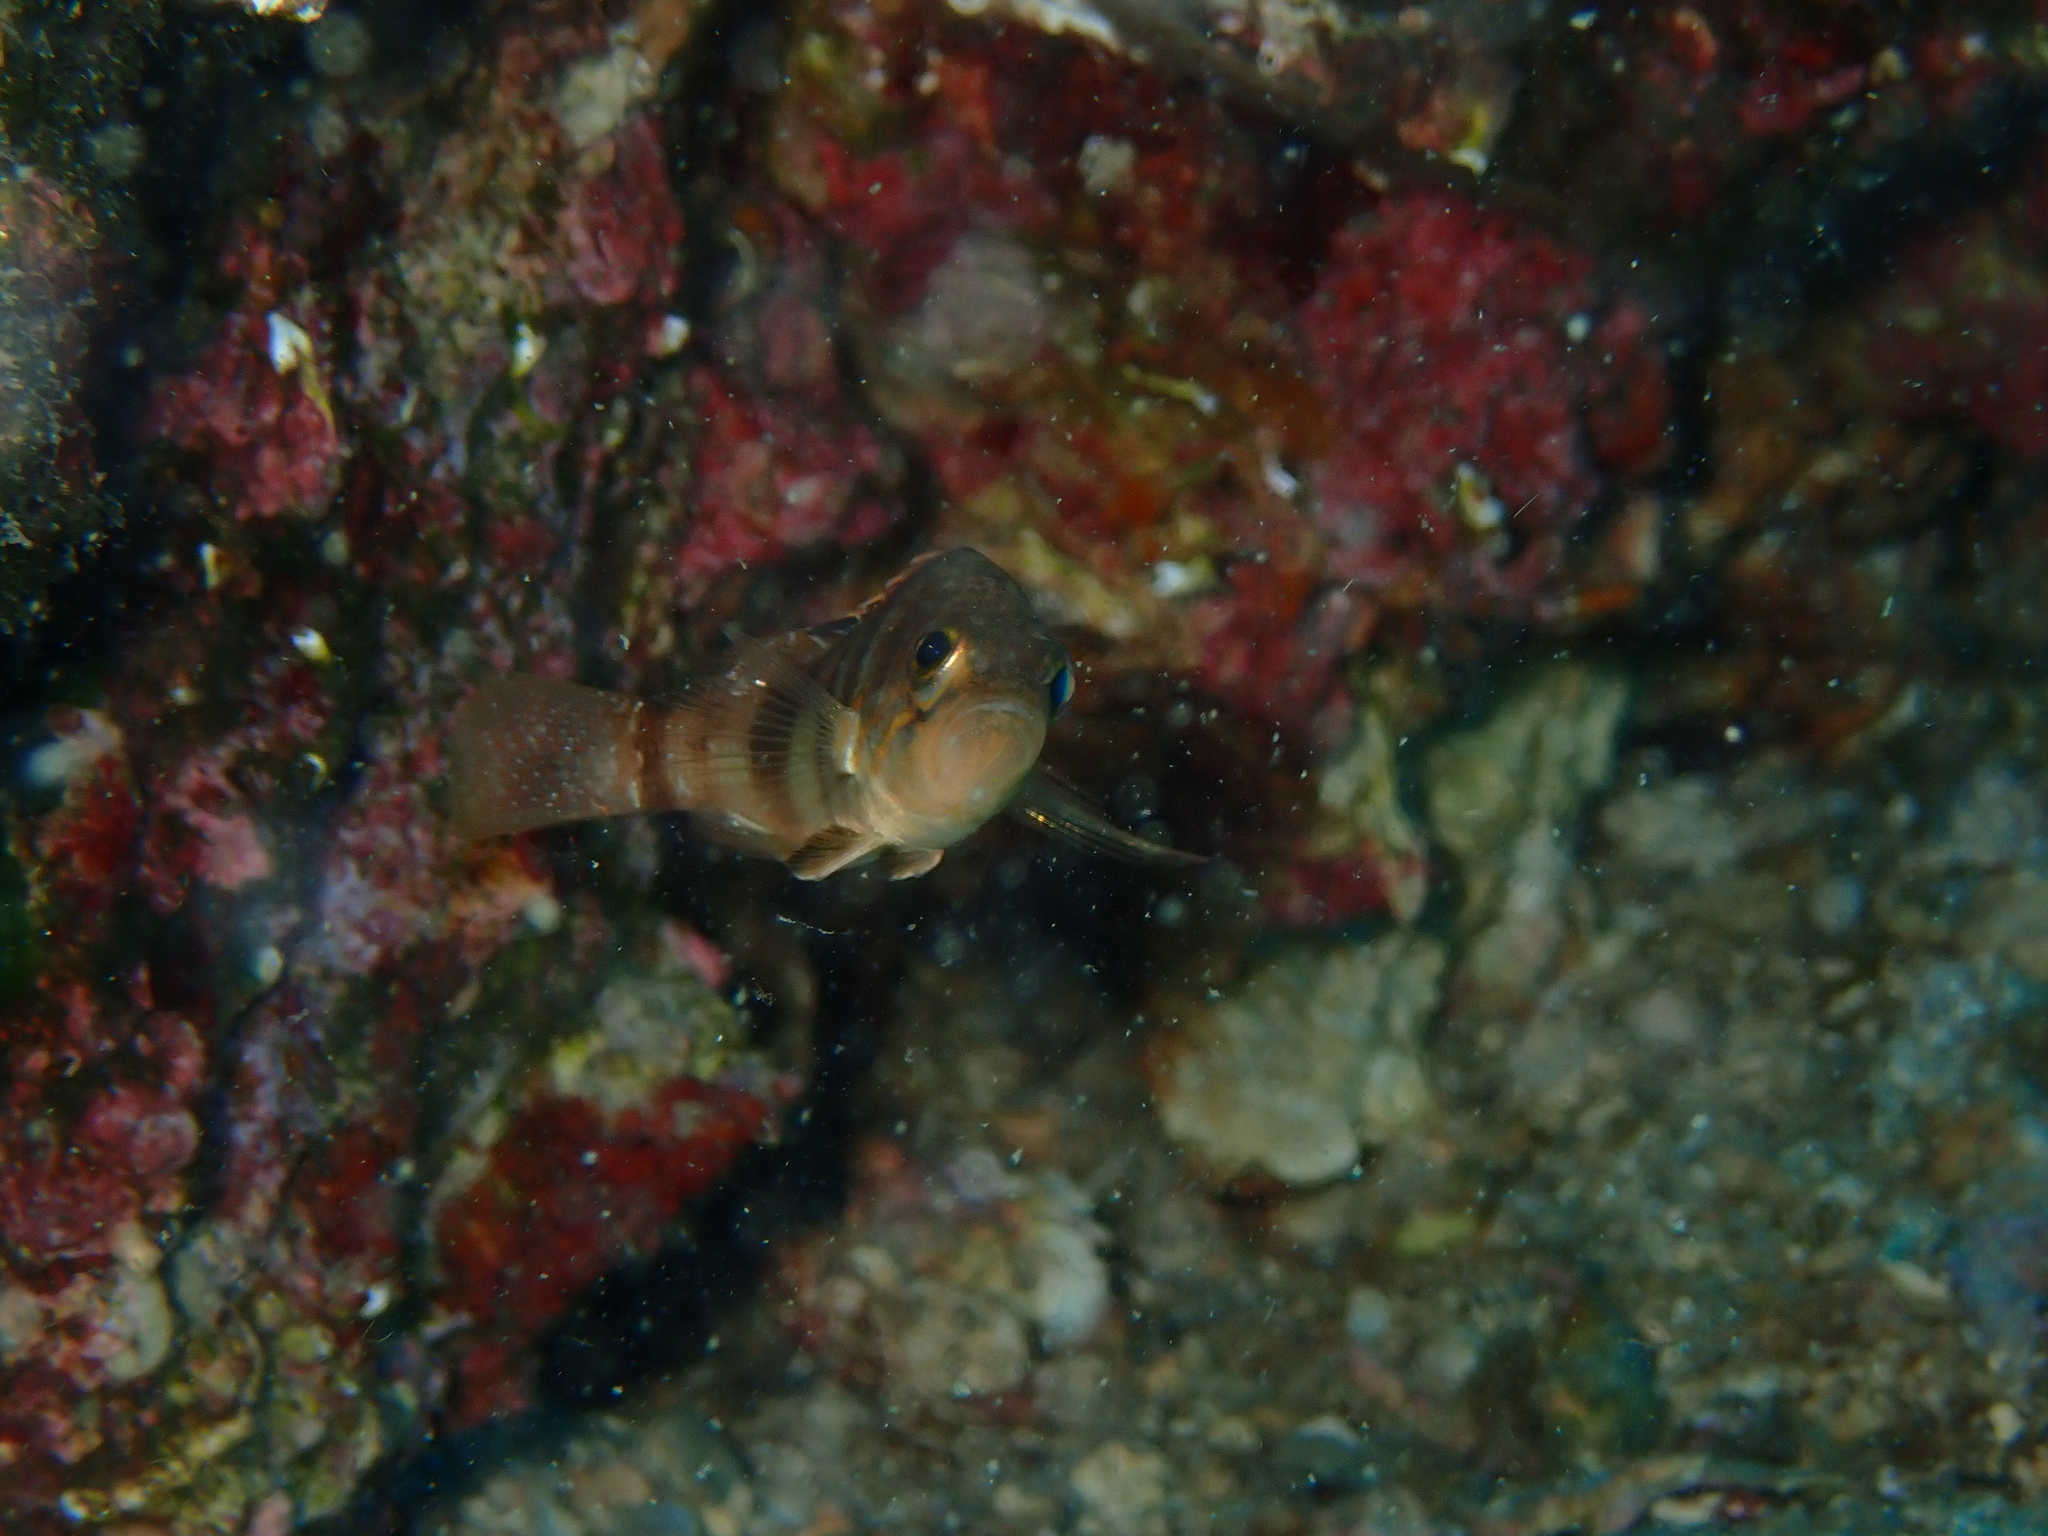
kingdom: Animalia
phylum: Chordata
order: Perciformes
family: Serranidae
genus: Serranus
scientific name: Serranus hepatus
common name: Brown comber
